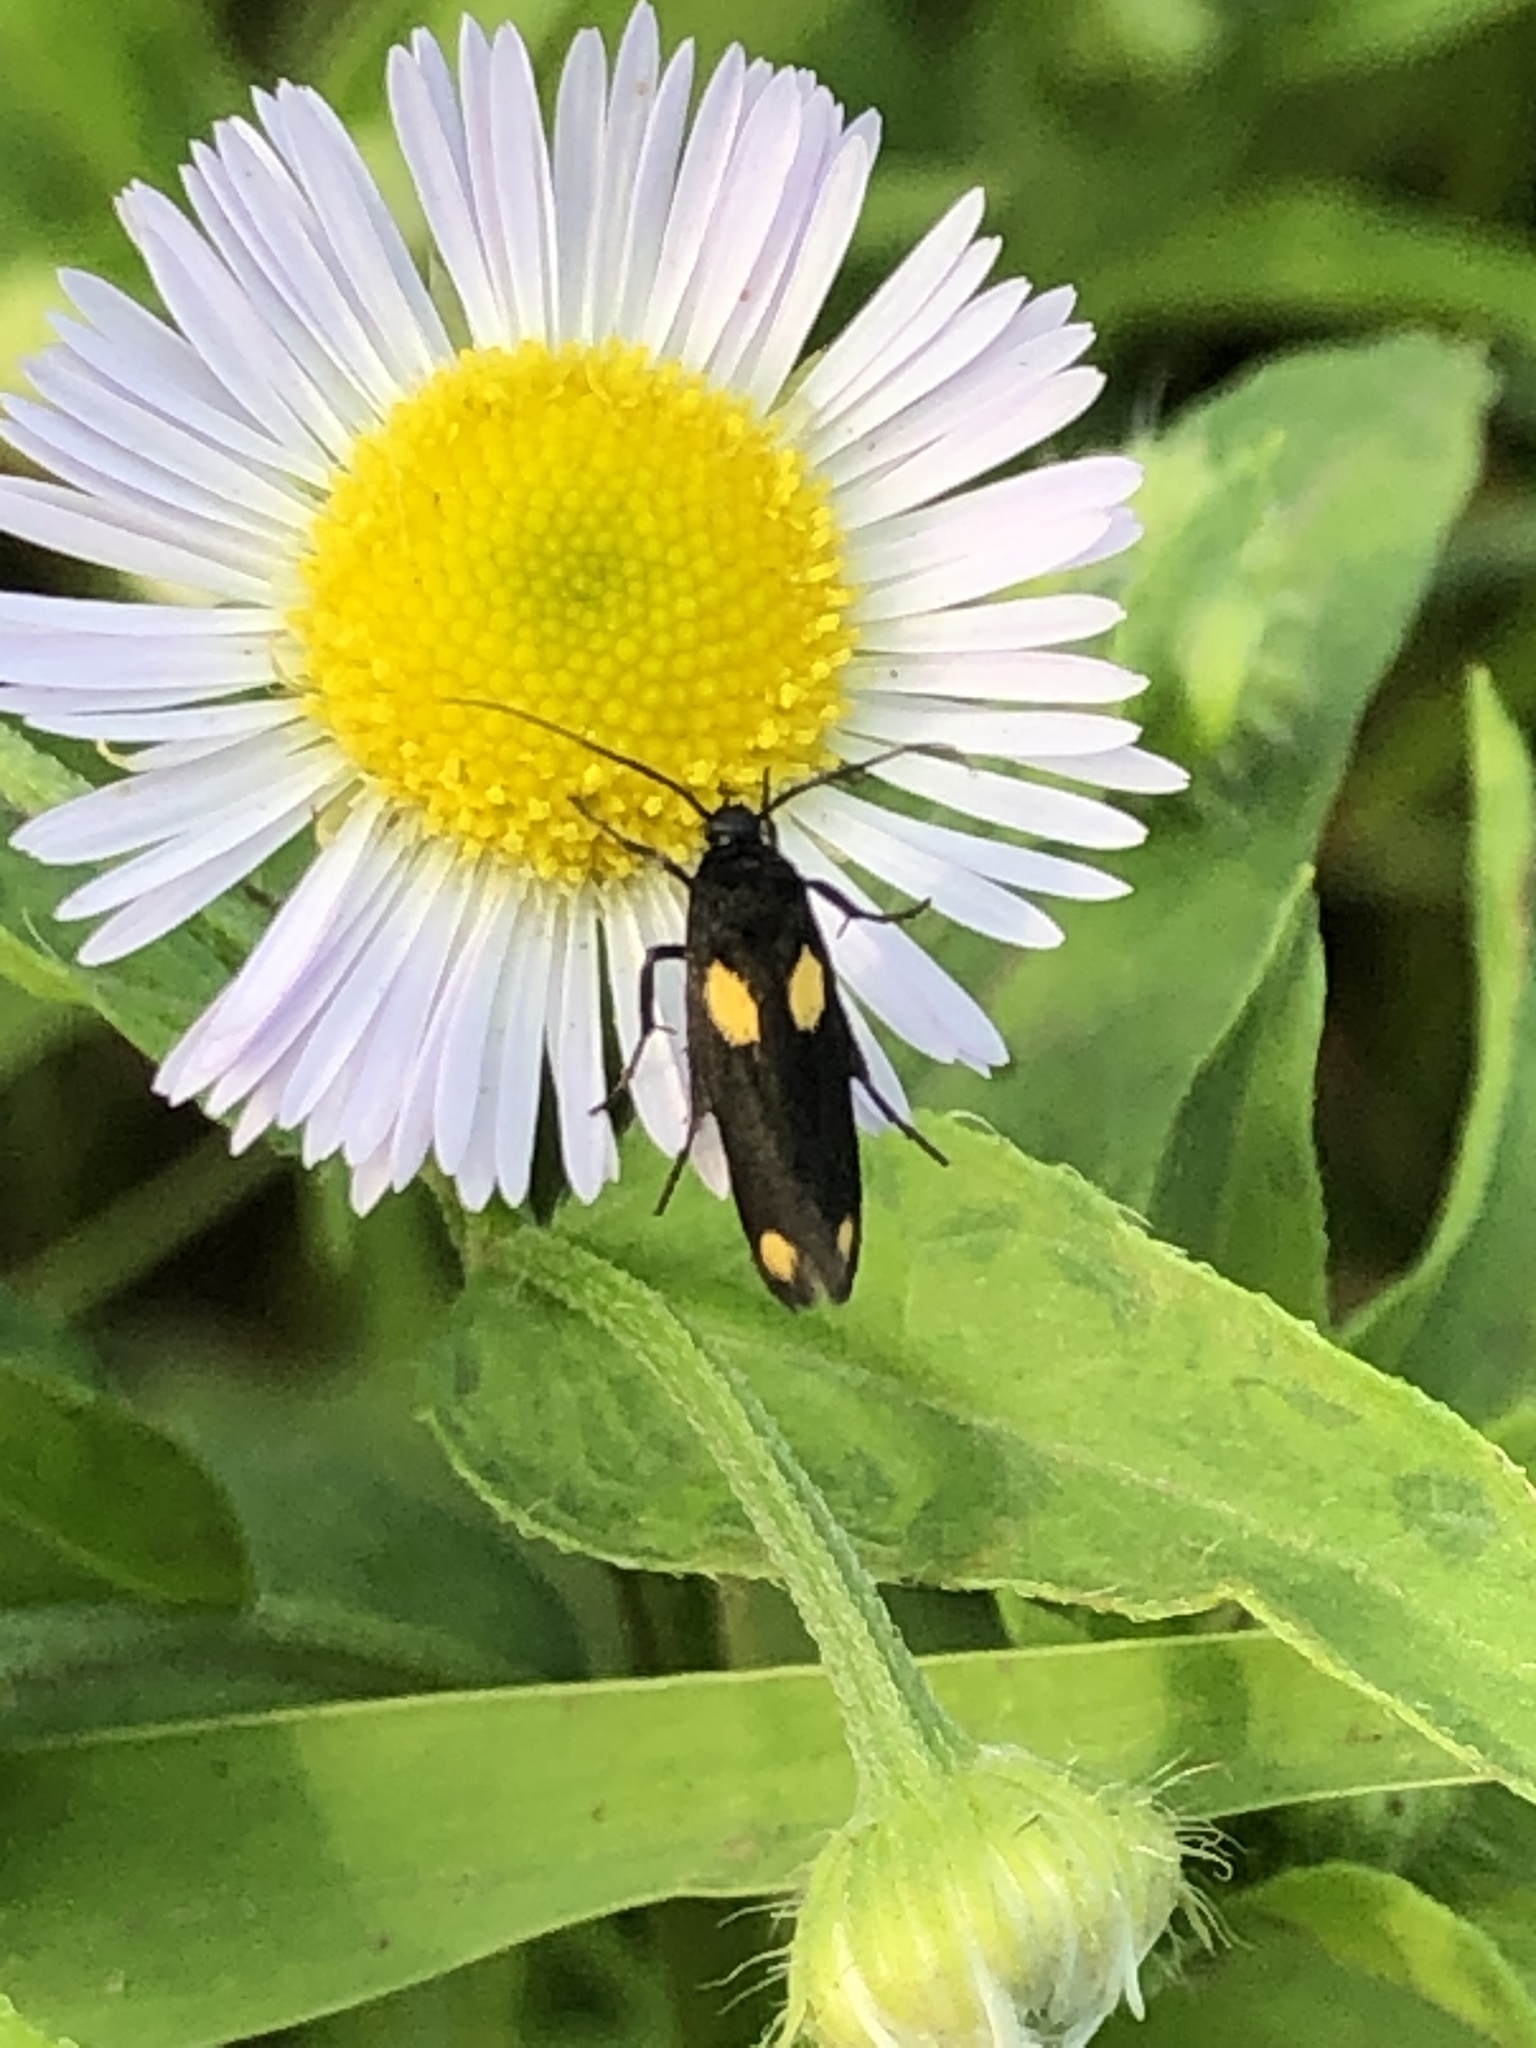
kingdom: Animalia
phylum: Arthropoda
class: Insecta
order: Lepidoptera
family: Scythrididae
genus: Scythris
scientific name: Scythris sinensis
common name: Kentish owlet
